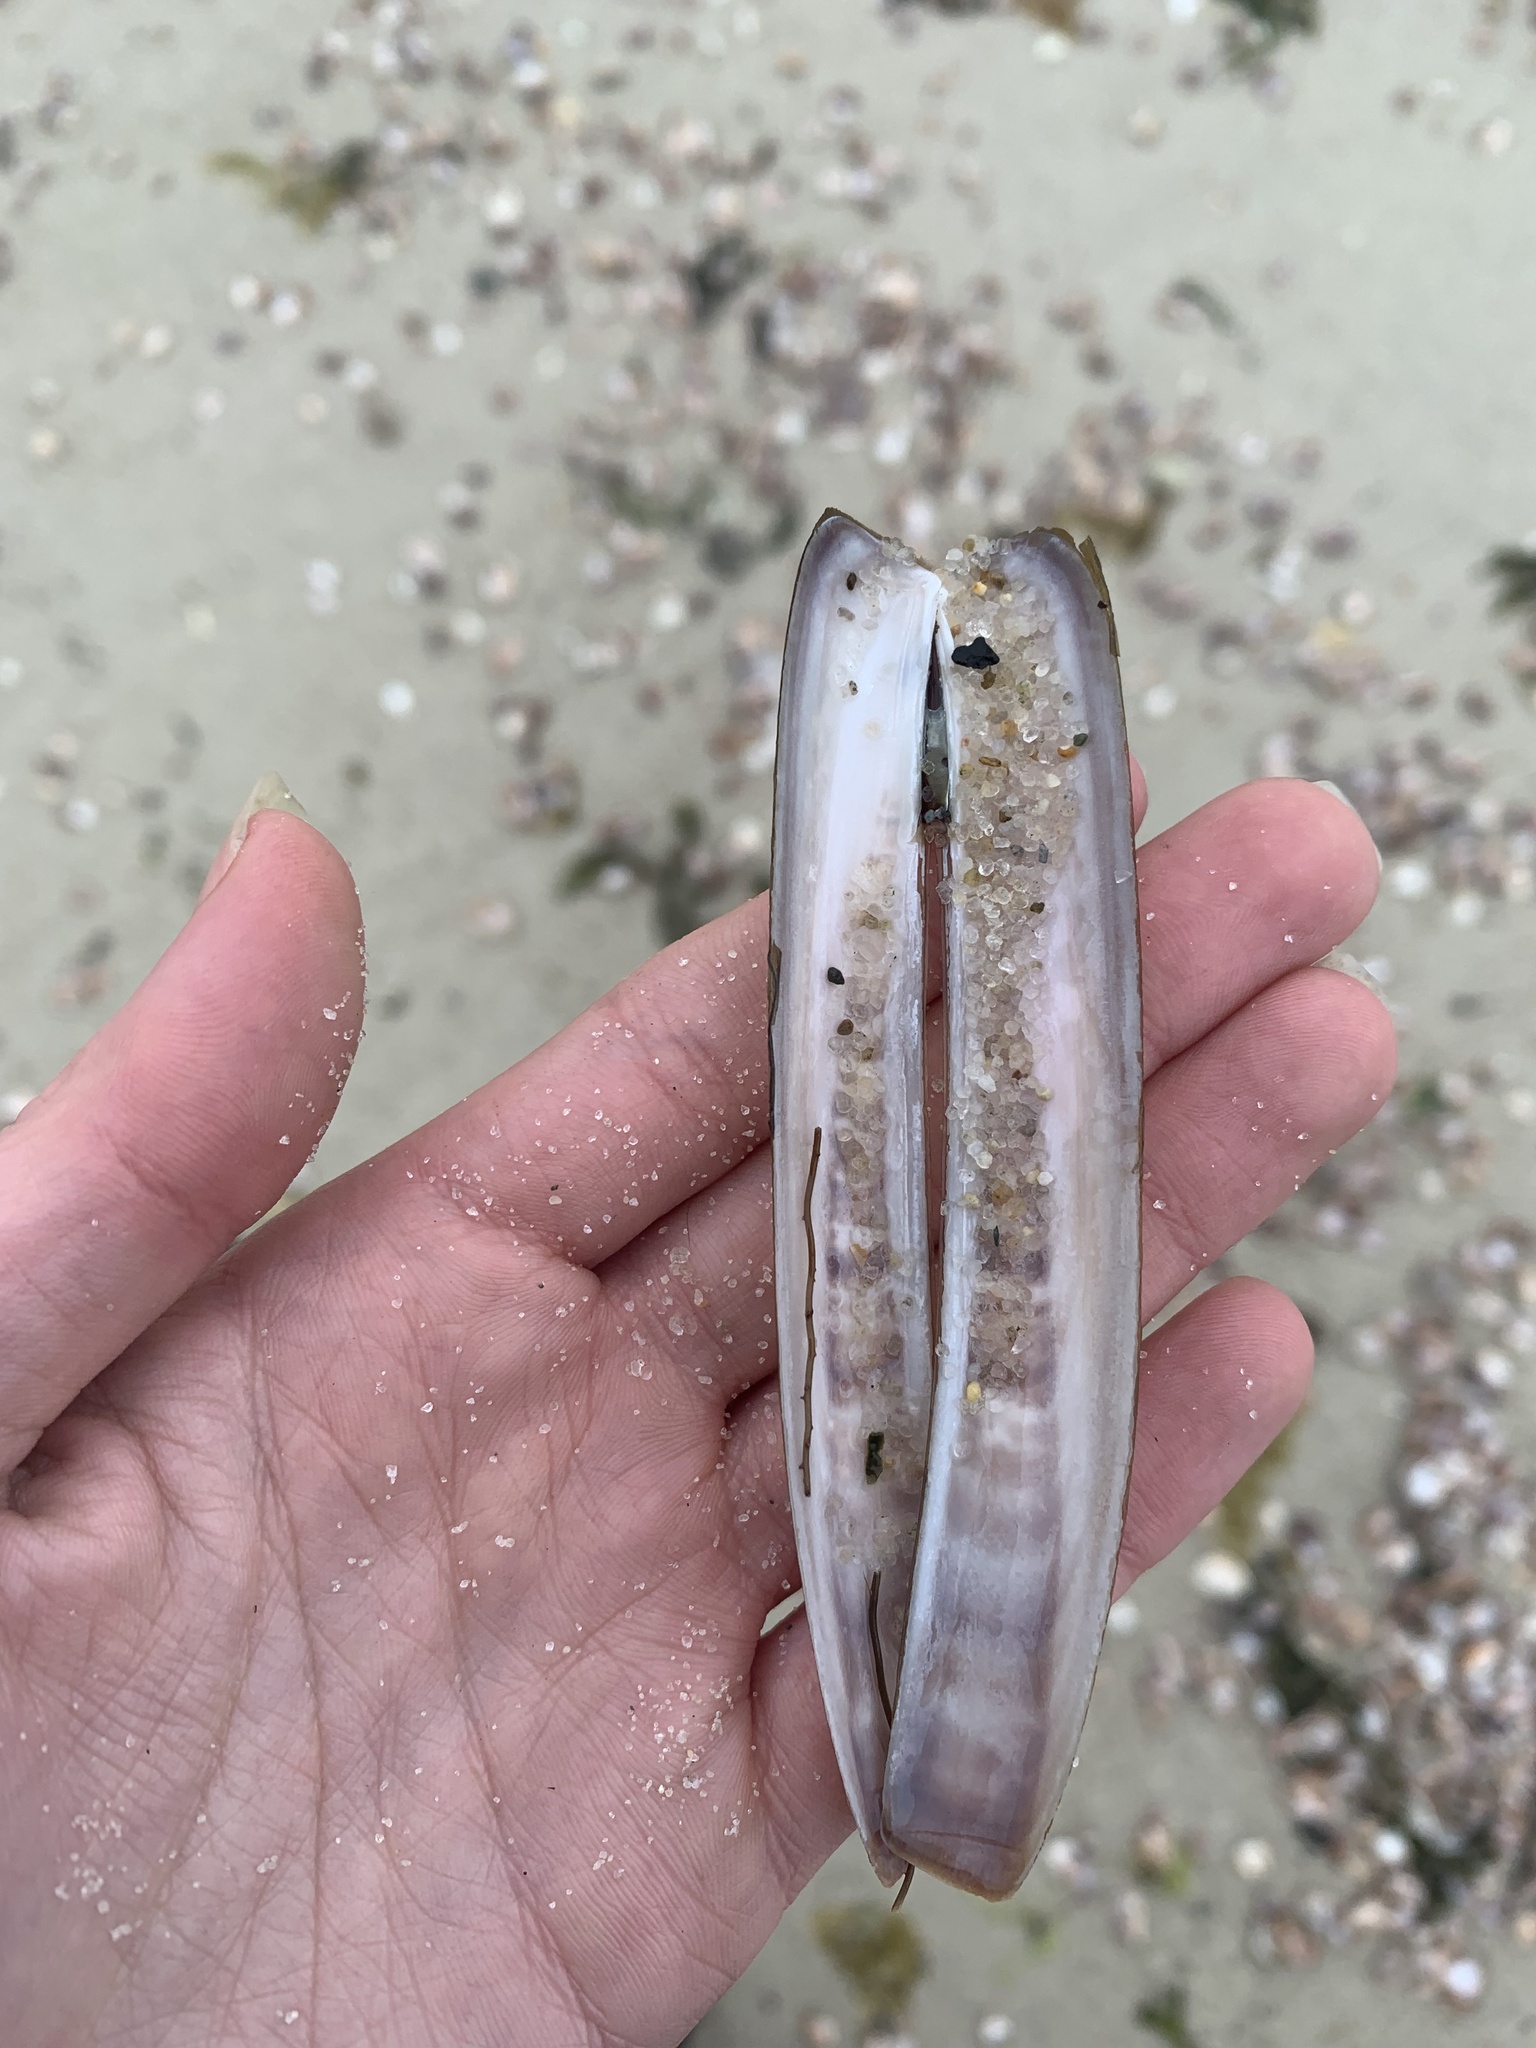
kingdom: Animalia
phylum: Mollusca
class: Bivalvia
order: Adapedonta
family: Pharidae
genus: Ensis
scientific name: Ensis leei
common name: American jack knife clam
